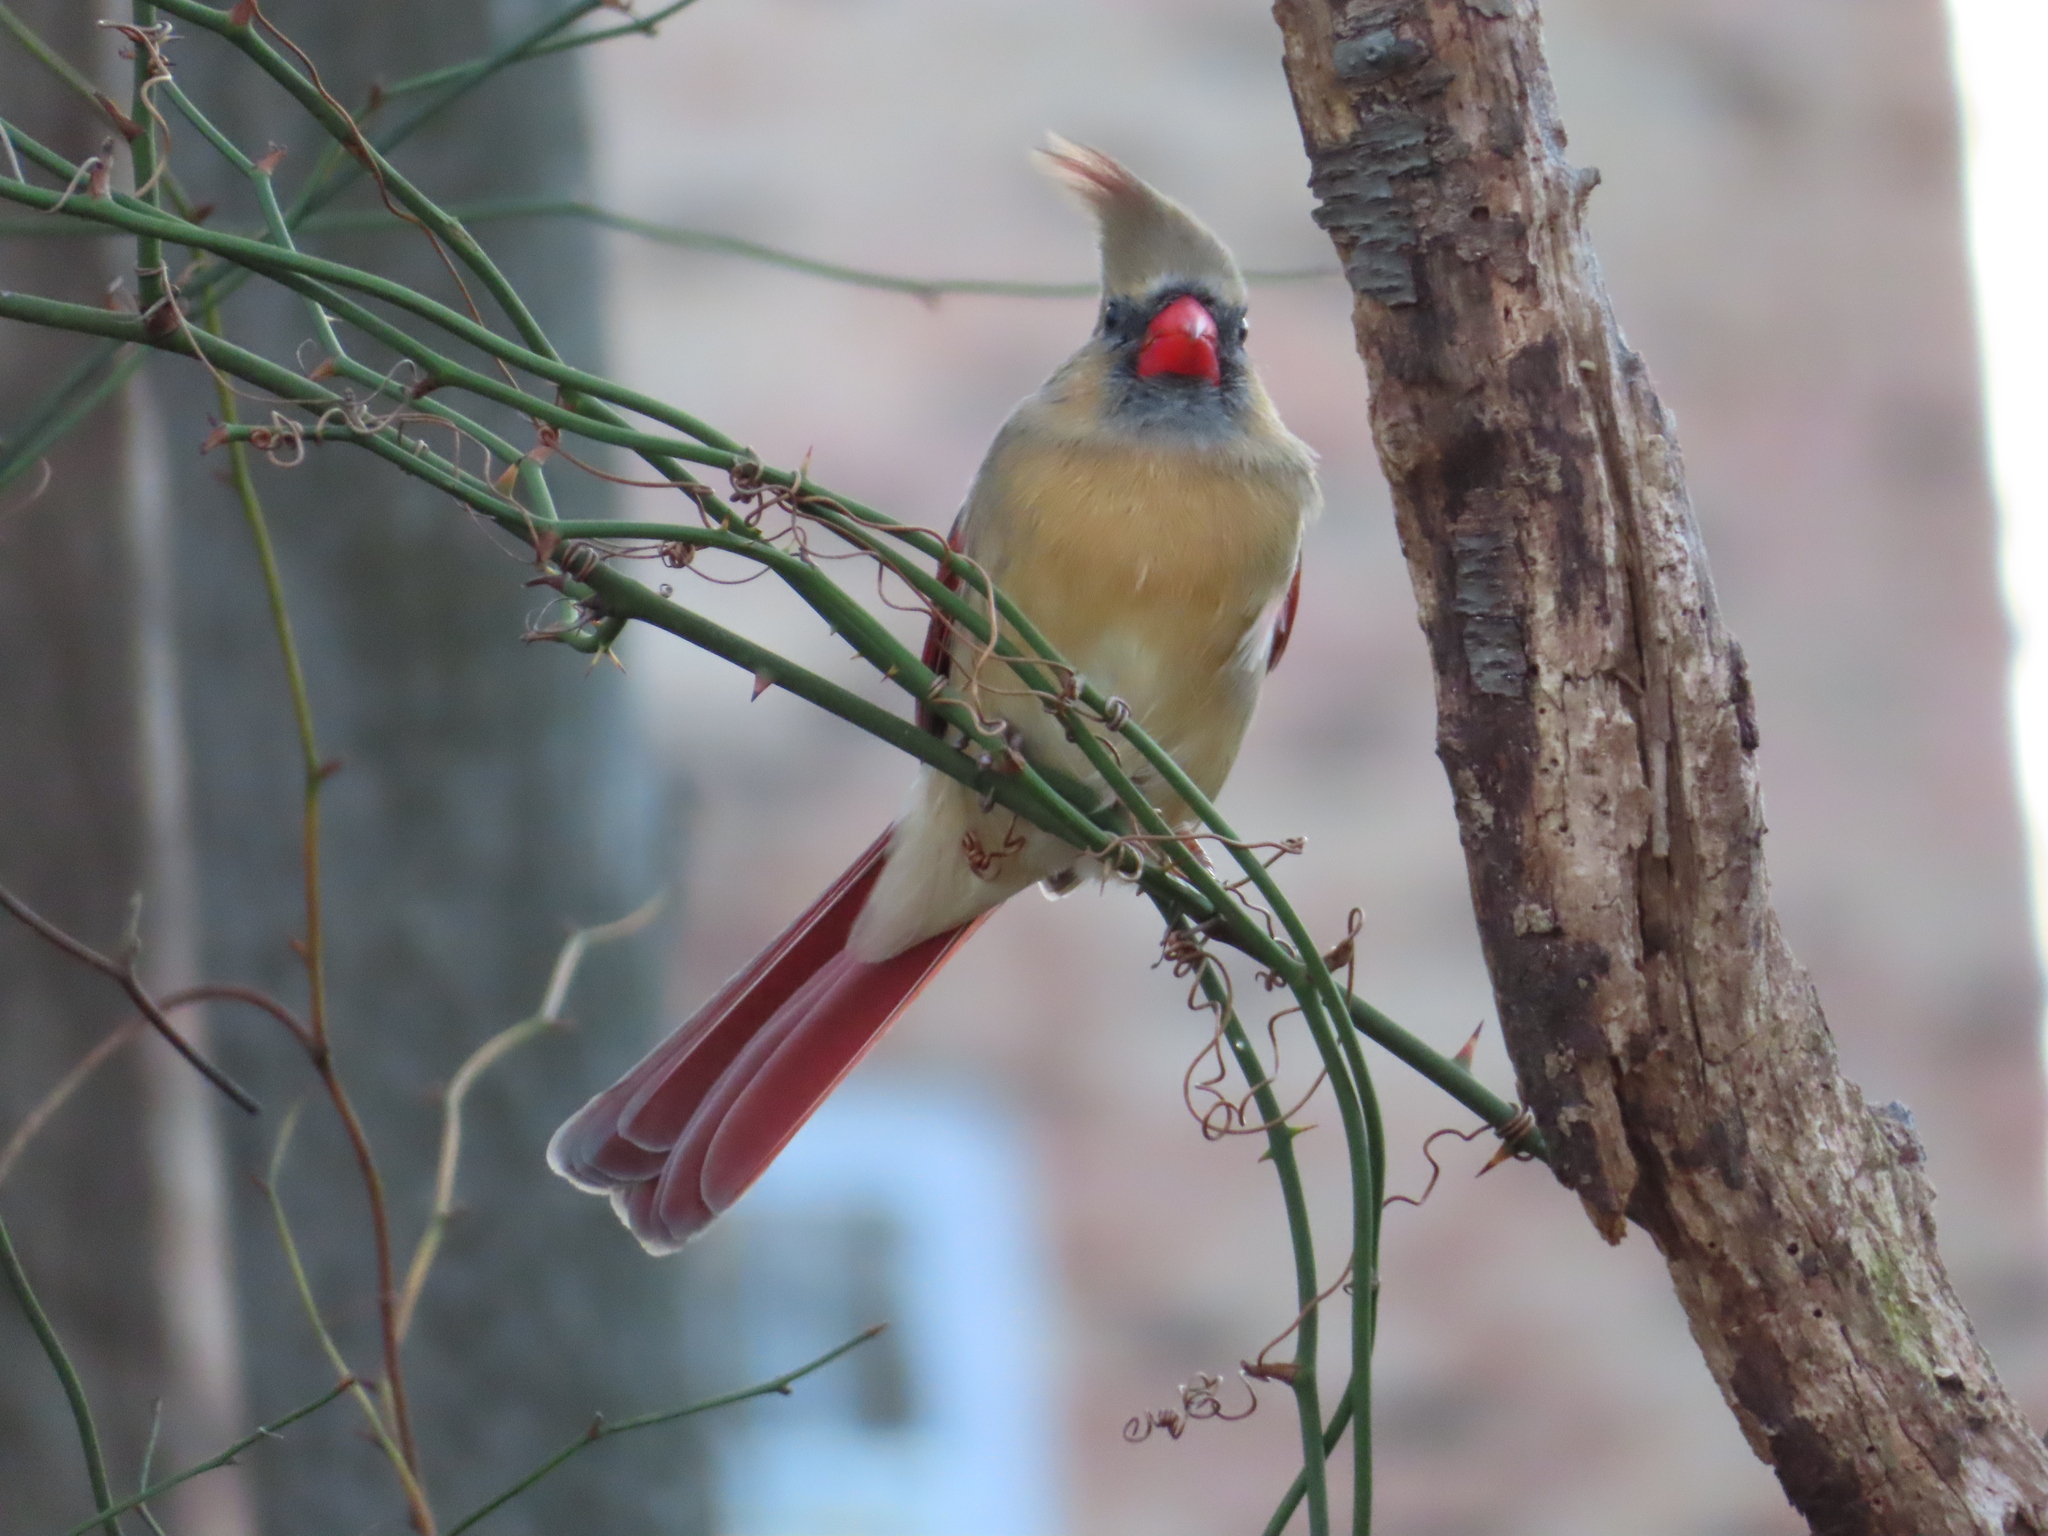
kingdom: Animalia
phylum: Chordata
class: Aves
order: Passeriformes
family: Cardinalidae
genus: Cardinalis
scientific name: Cardinalis cardinalis
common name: Northern cardinal
